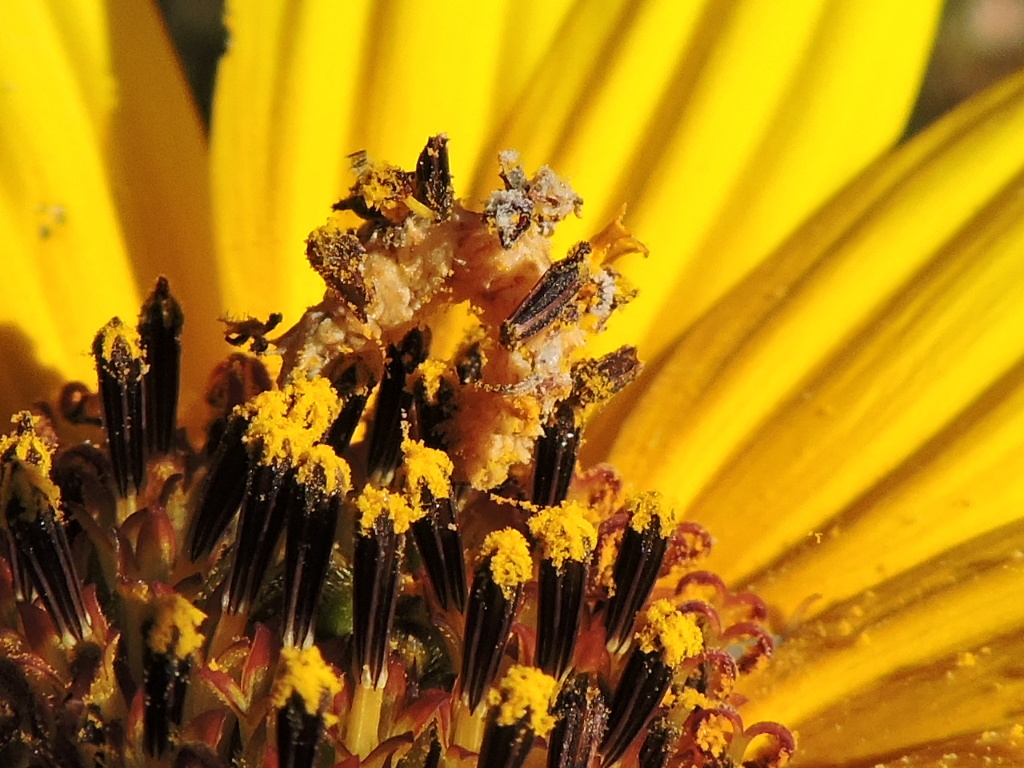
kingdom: Animalia
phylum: Arthropoda
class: Insecta
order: Lepidoptera
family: Geometridae
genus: Synchlora
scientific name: Synchlora
